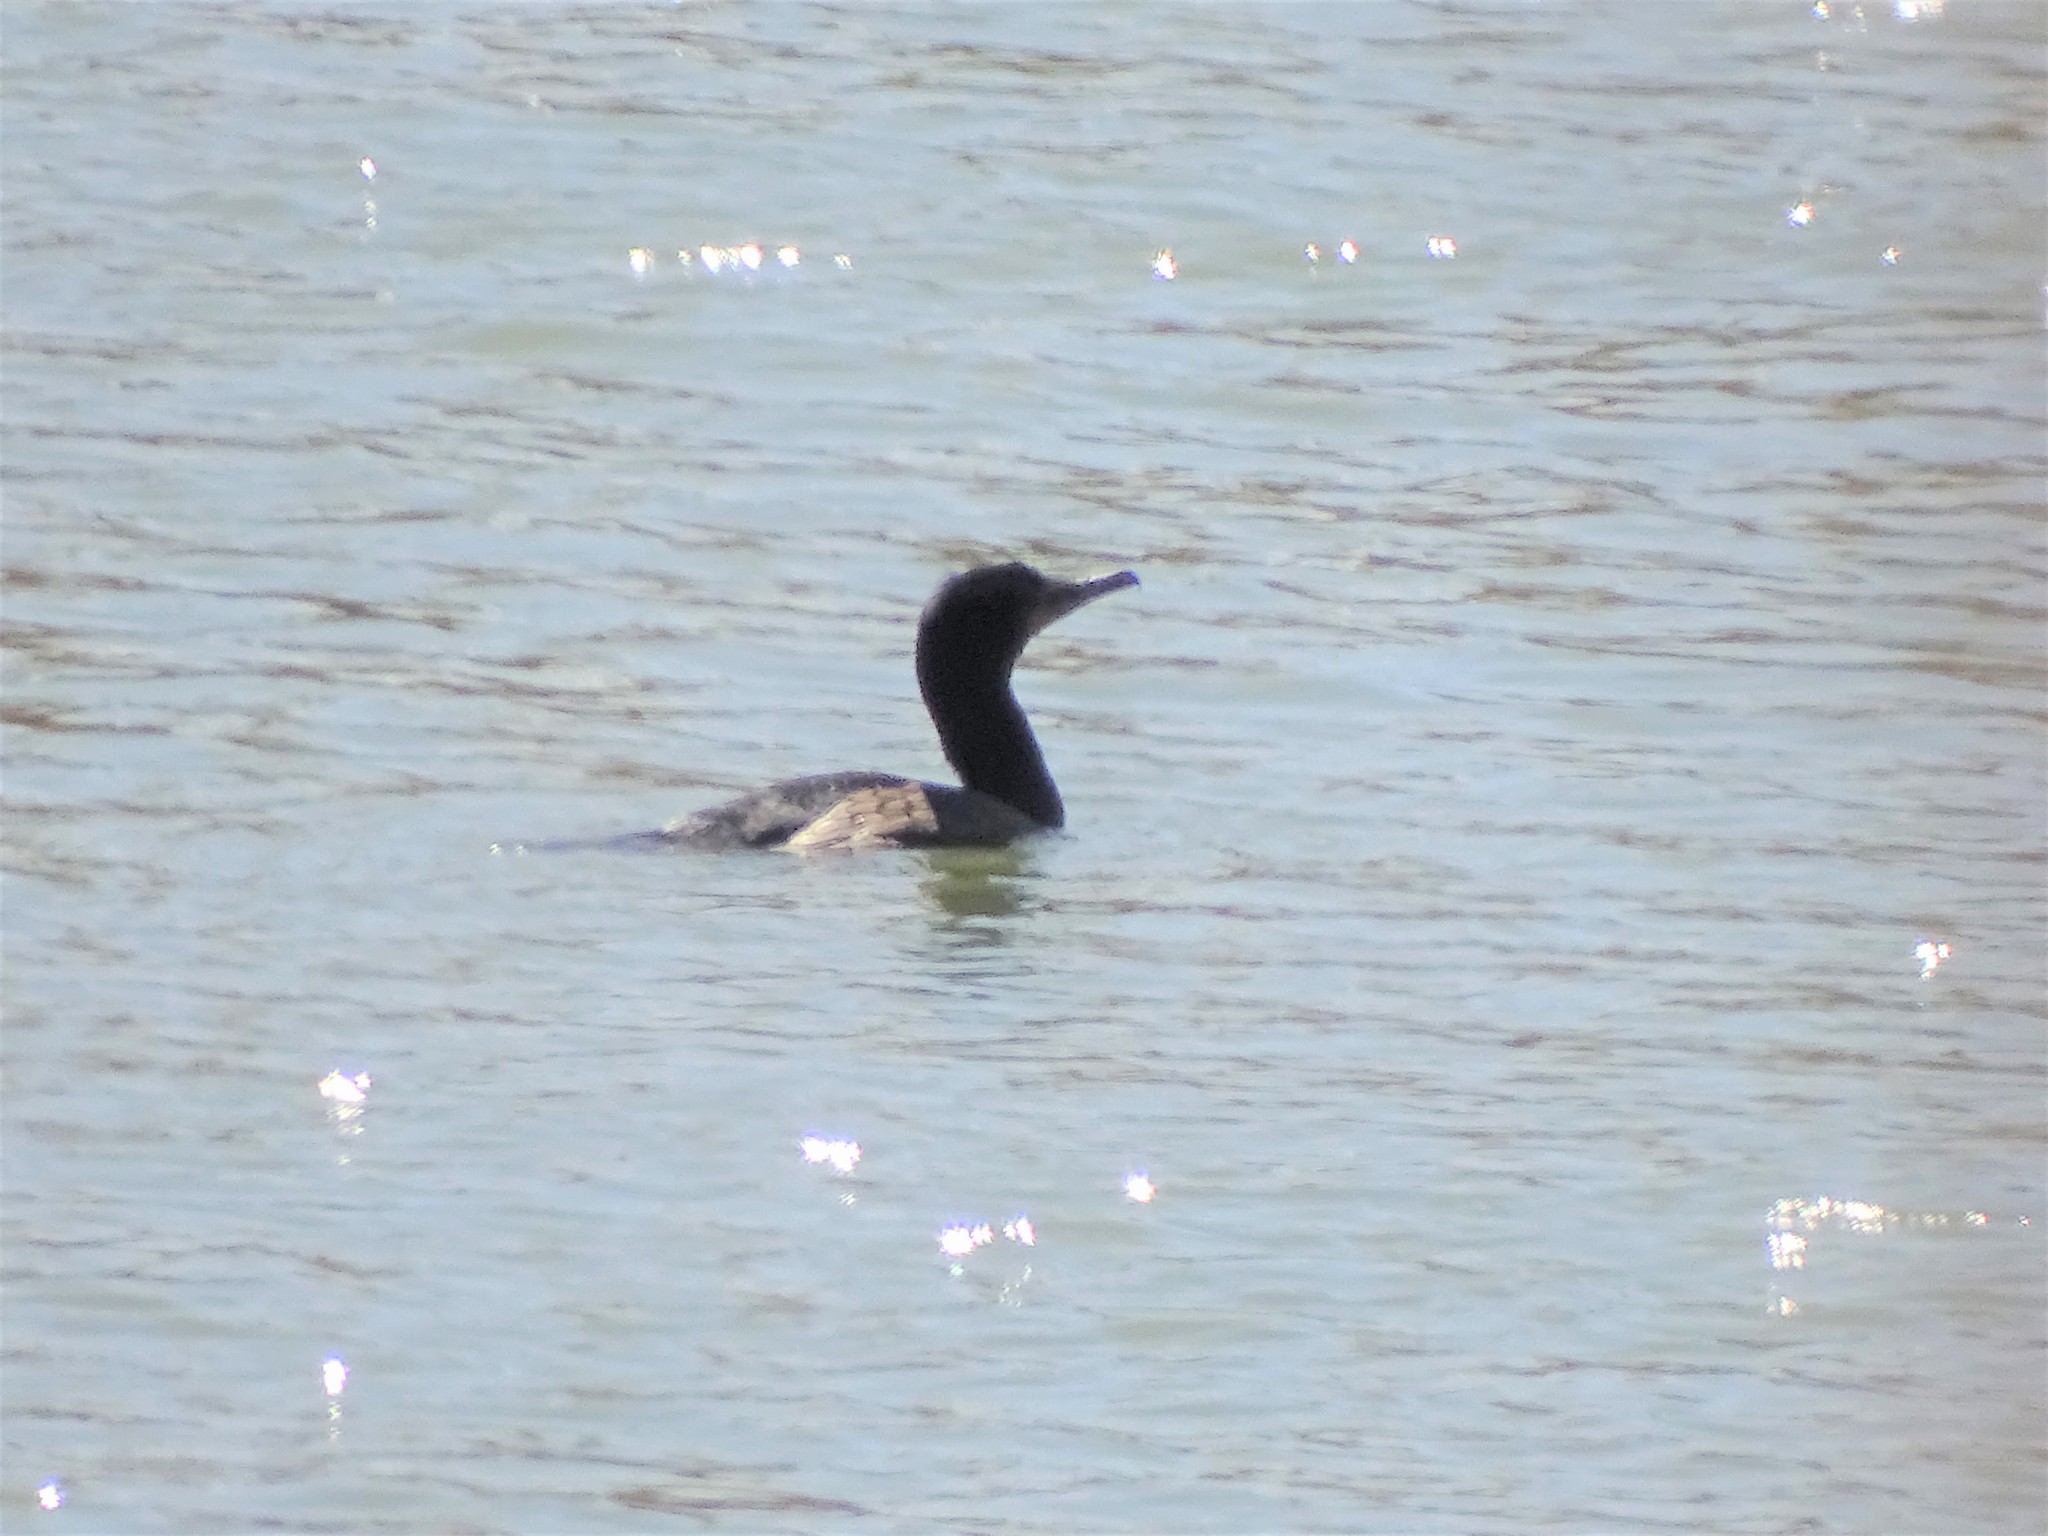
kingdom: Animalia
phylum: Chordata
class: Aves
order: Suliformes
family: Phalacrocoracidae
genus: Phalacrocorax
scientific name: Phalacrocorax auritus
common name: Double-crested cormorant
